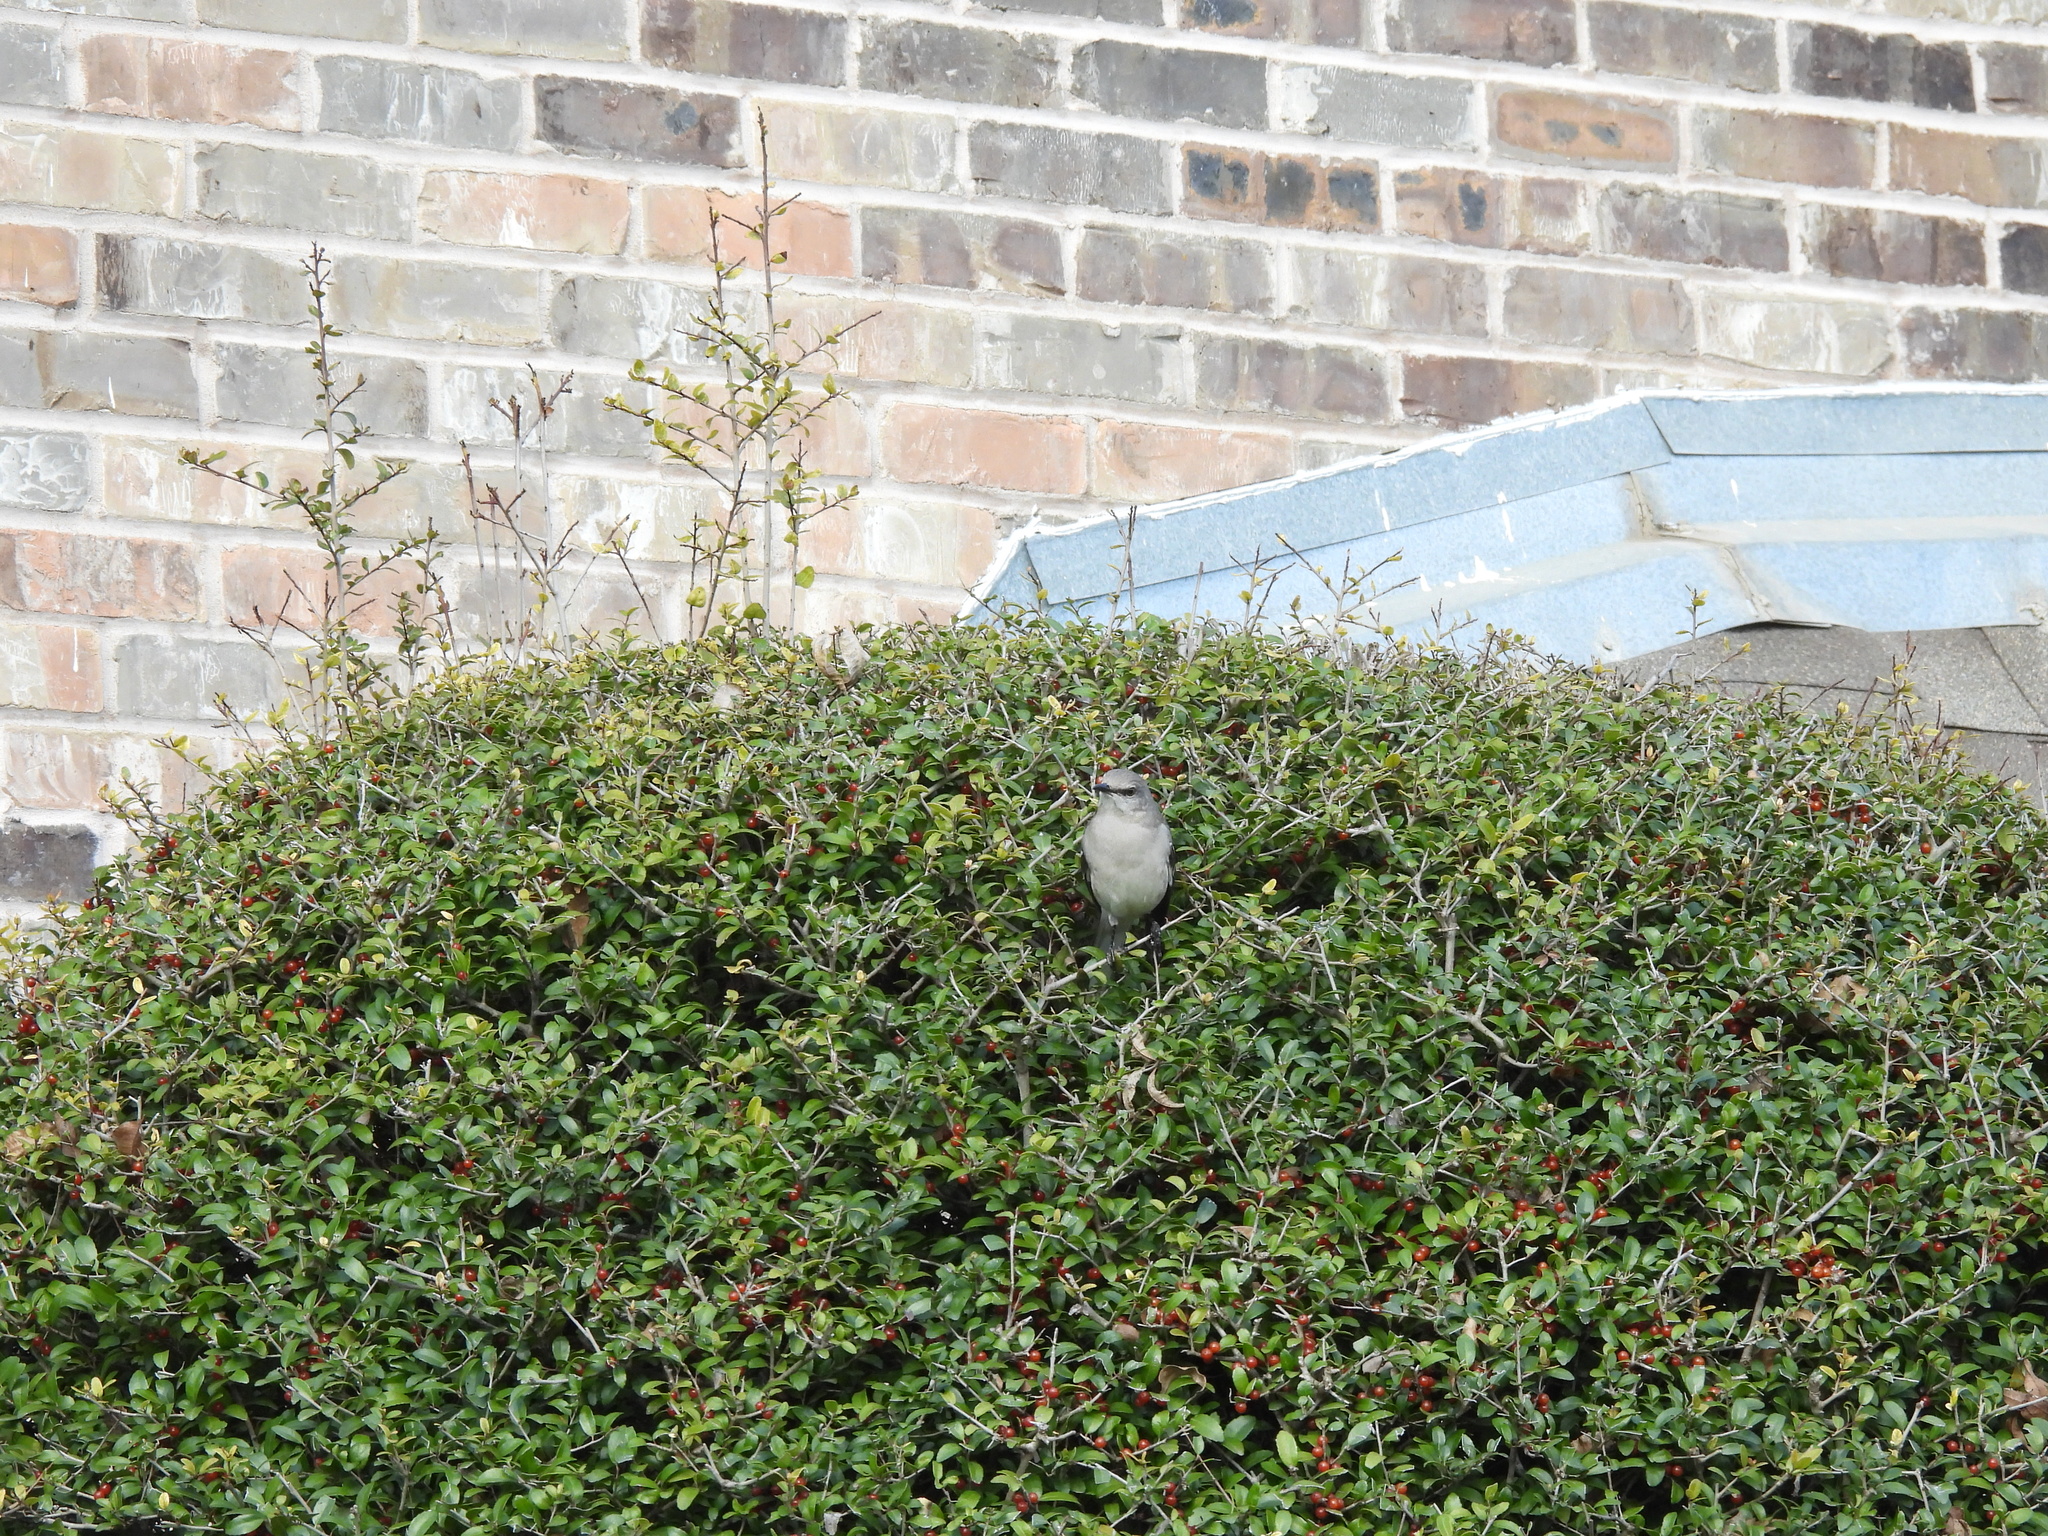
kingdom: Animalia
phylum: Chordata
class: Aves
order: Passeriformes
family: Mimidae
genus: Mimus
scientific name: Mimus polyglottos
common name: Northern mockingbird
